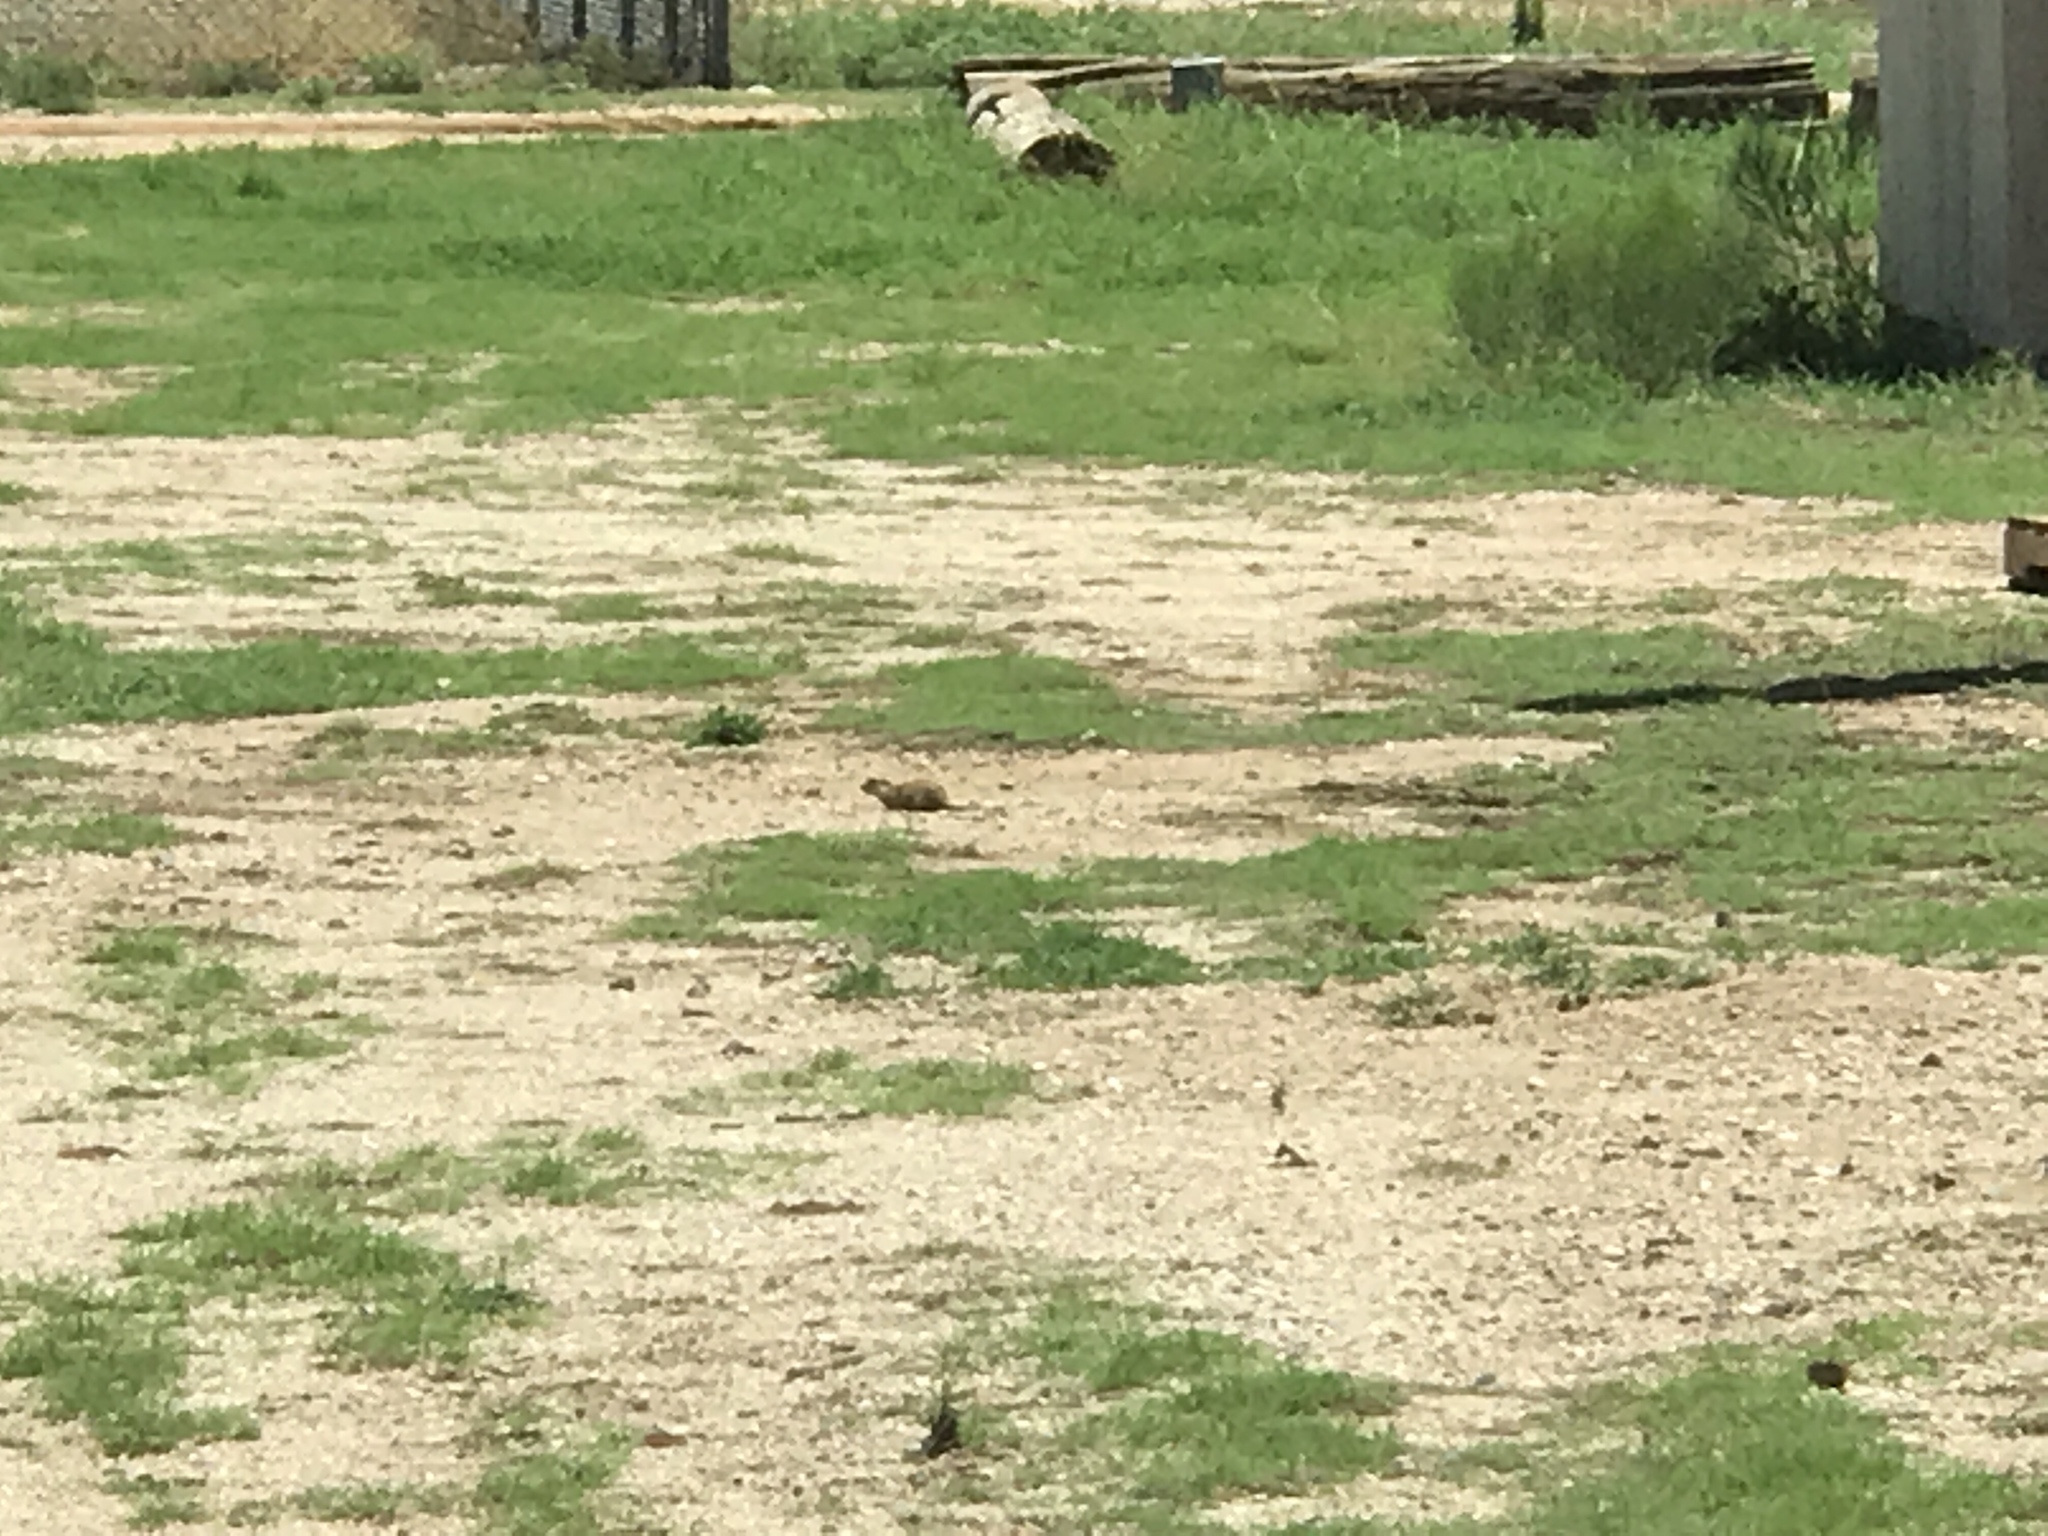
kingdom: Animalia
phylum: Chordata
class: Mammalia
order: Rodentia
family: Sciuridae
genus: Xerospermophilus
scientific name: Xerospermophilus tereticaudus
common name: Round-tailed ground squirrel
